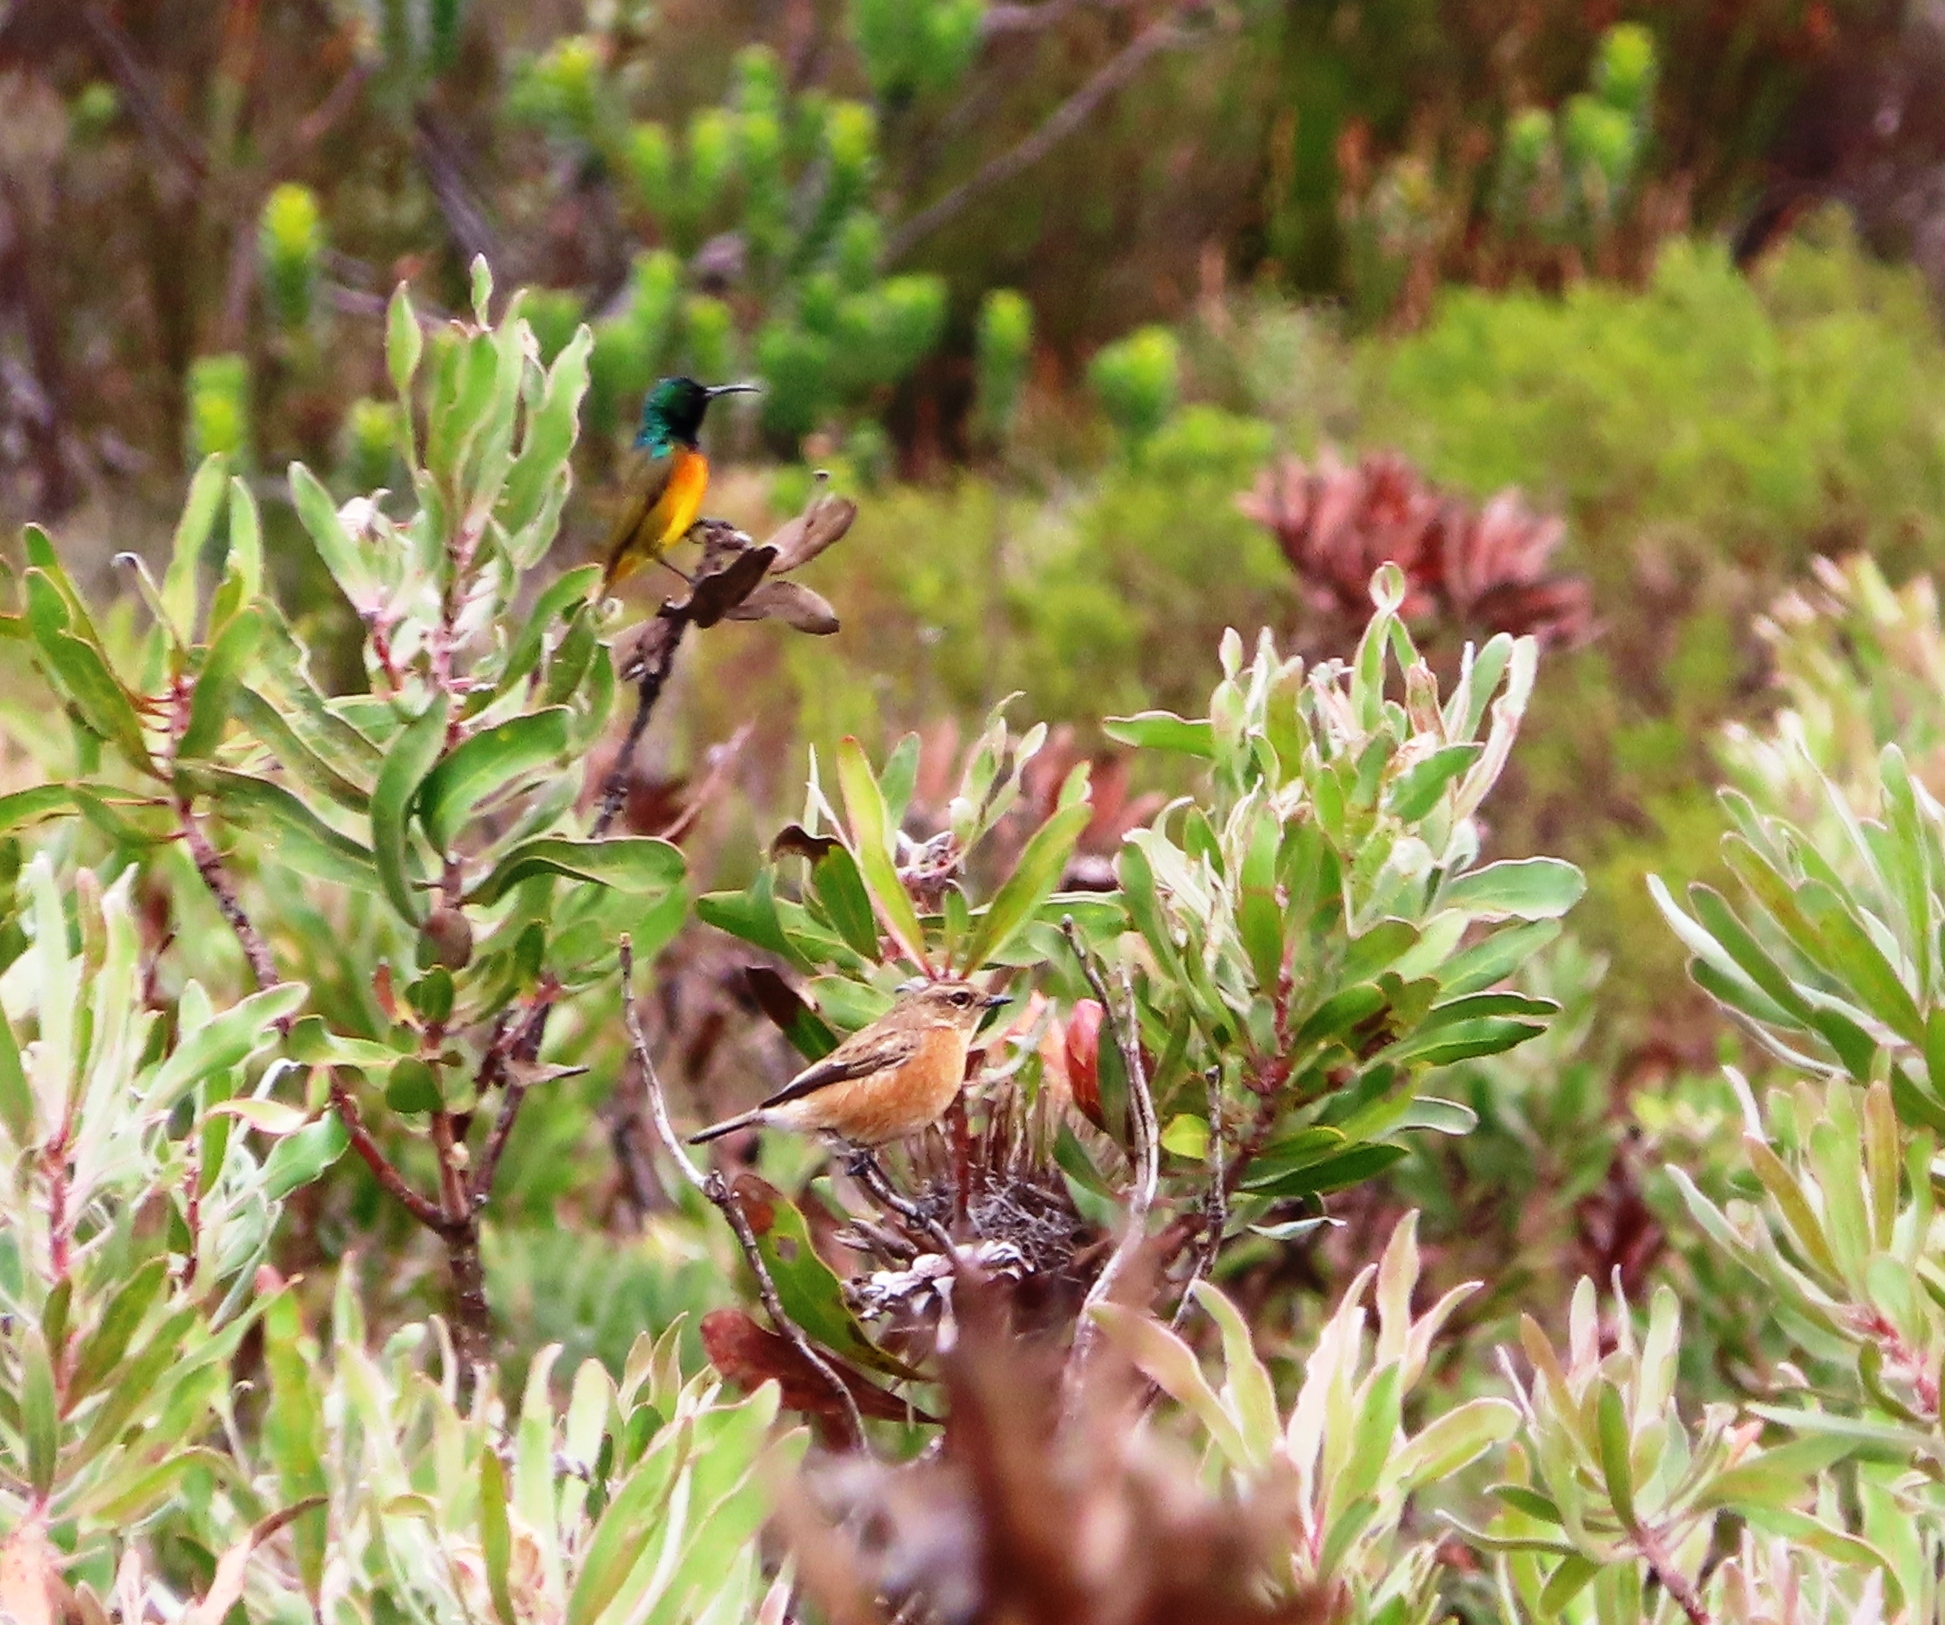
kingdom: Animalia
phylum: Chordata
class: Aves
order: Passeriformes
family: Muscicapidae
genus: Saxicola
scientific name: Saxicola torquatus
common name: African stonechat
